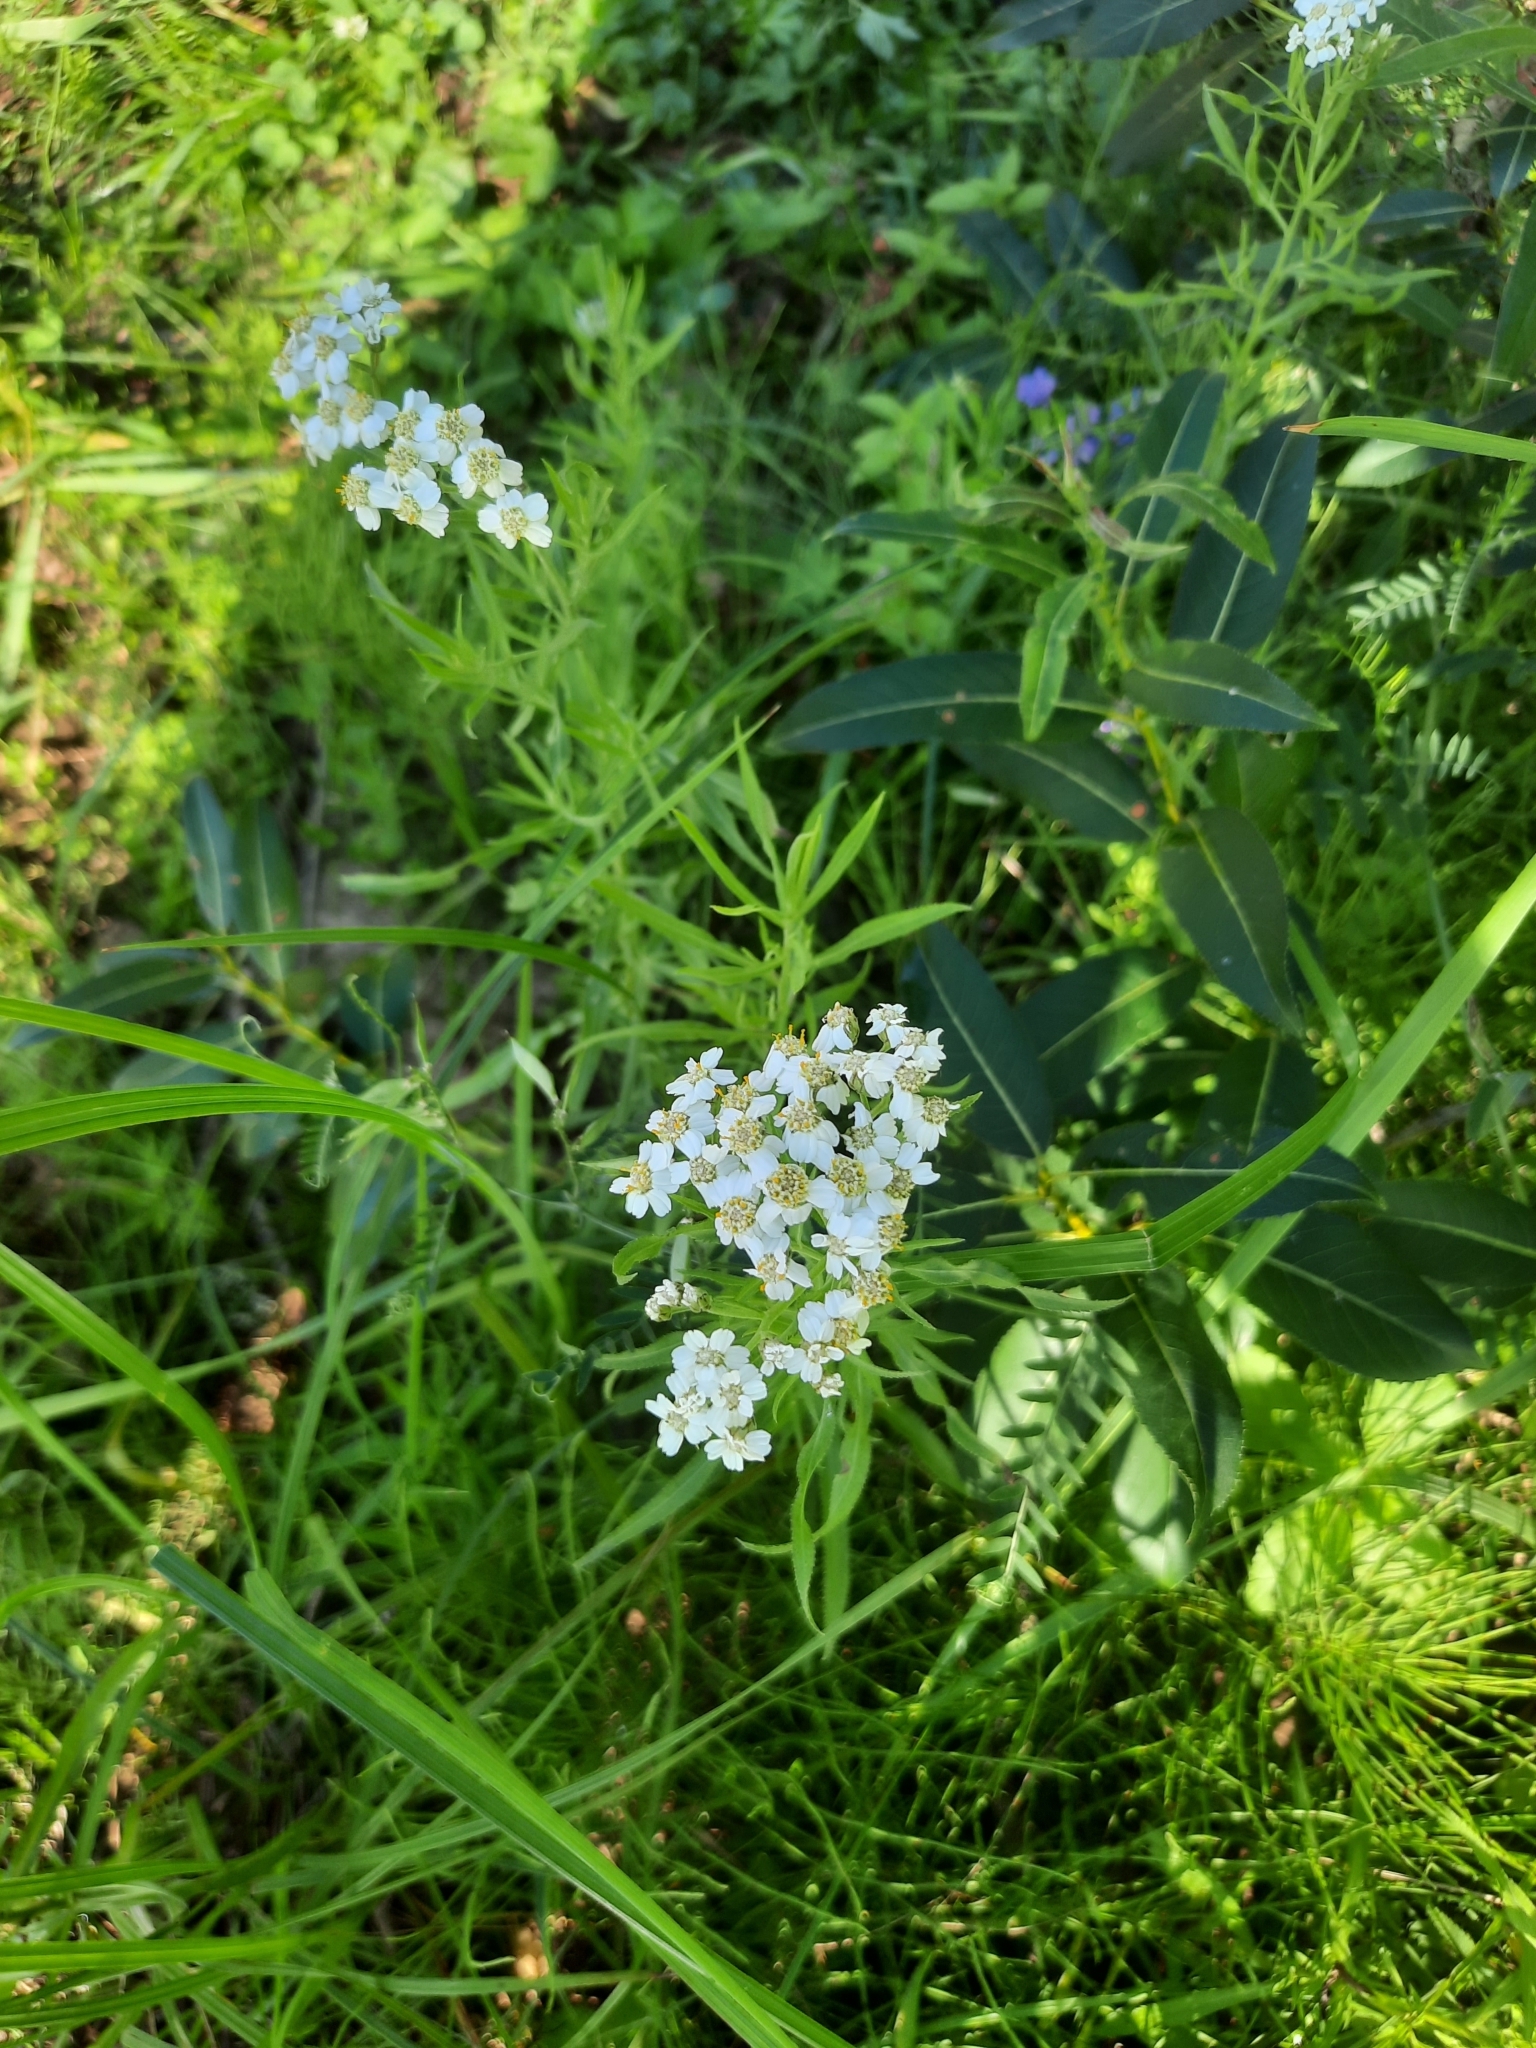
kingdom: Plantae
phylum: Tracheophyta
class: Magnoliopsida
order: Asterales
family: Asteraceae
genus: Achillea
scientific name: Achillea salicifolia
